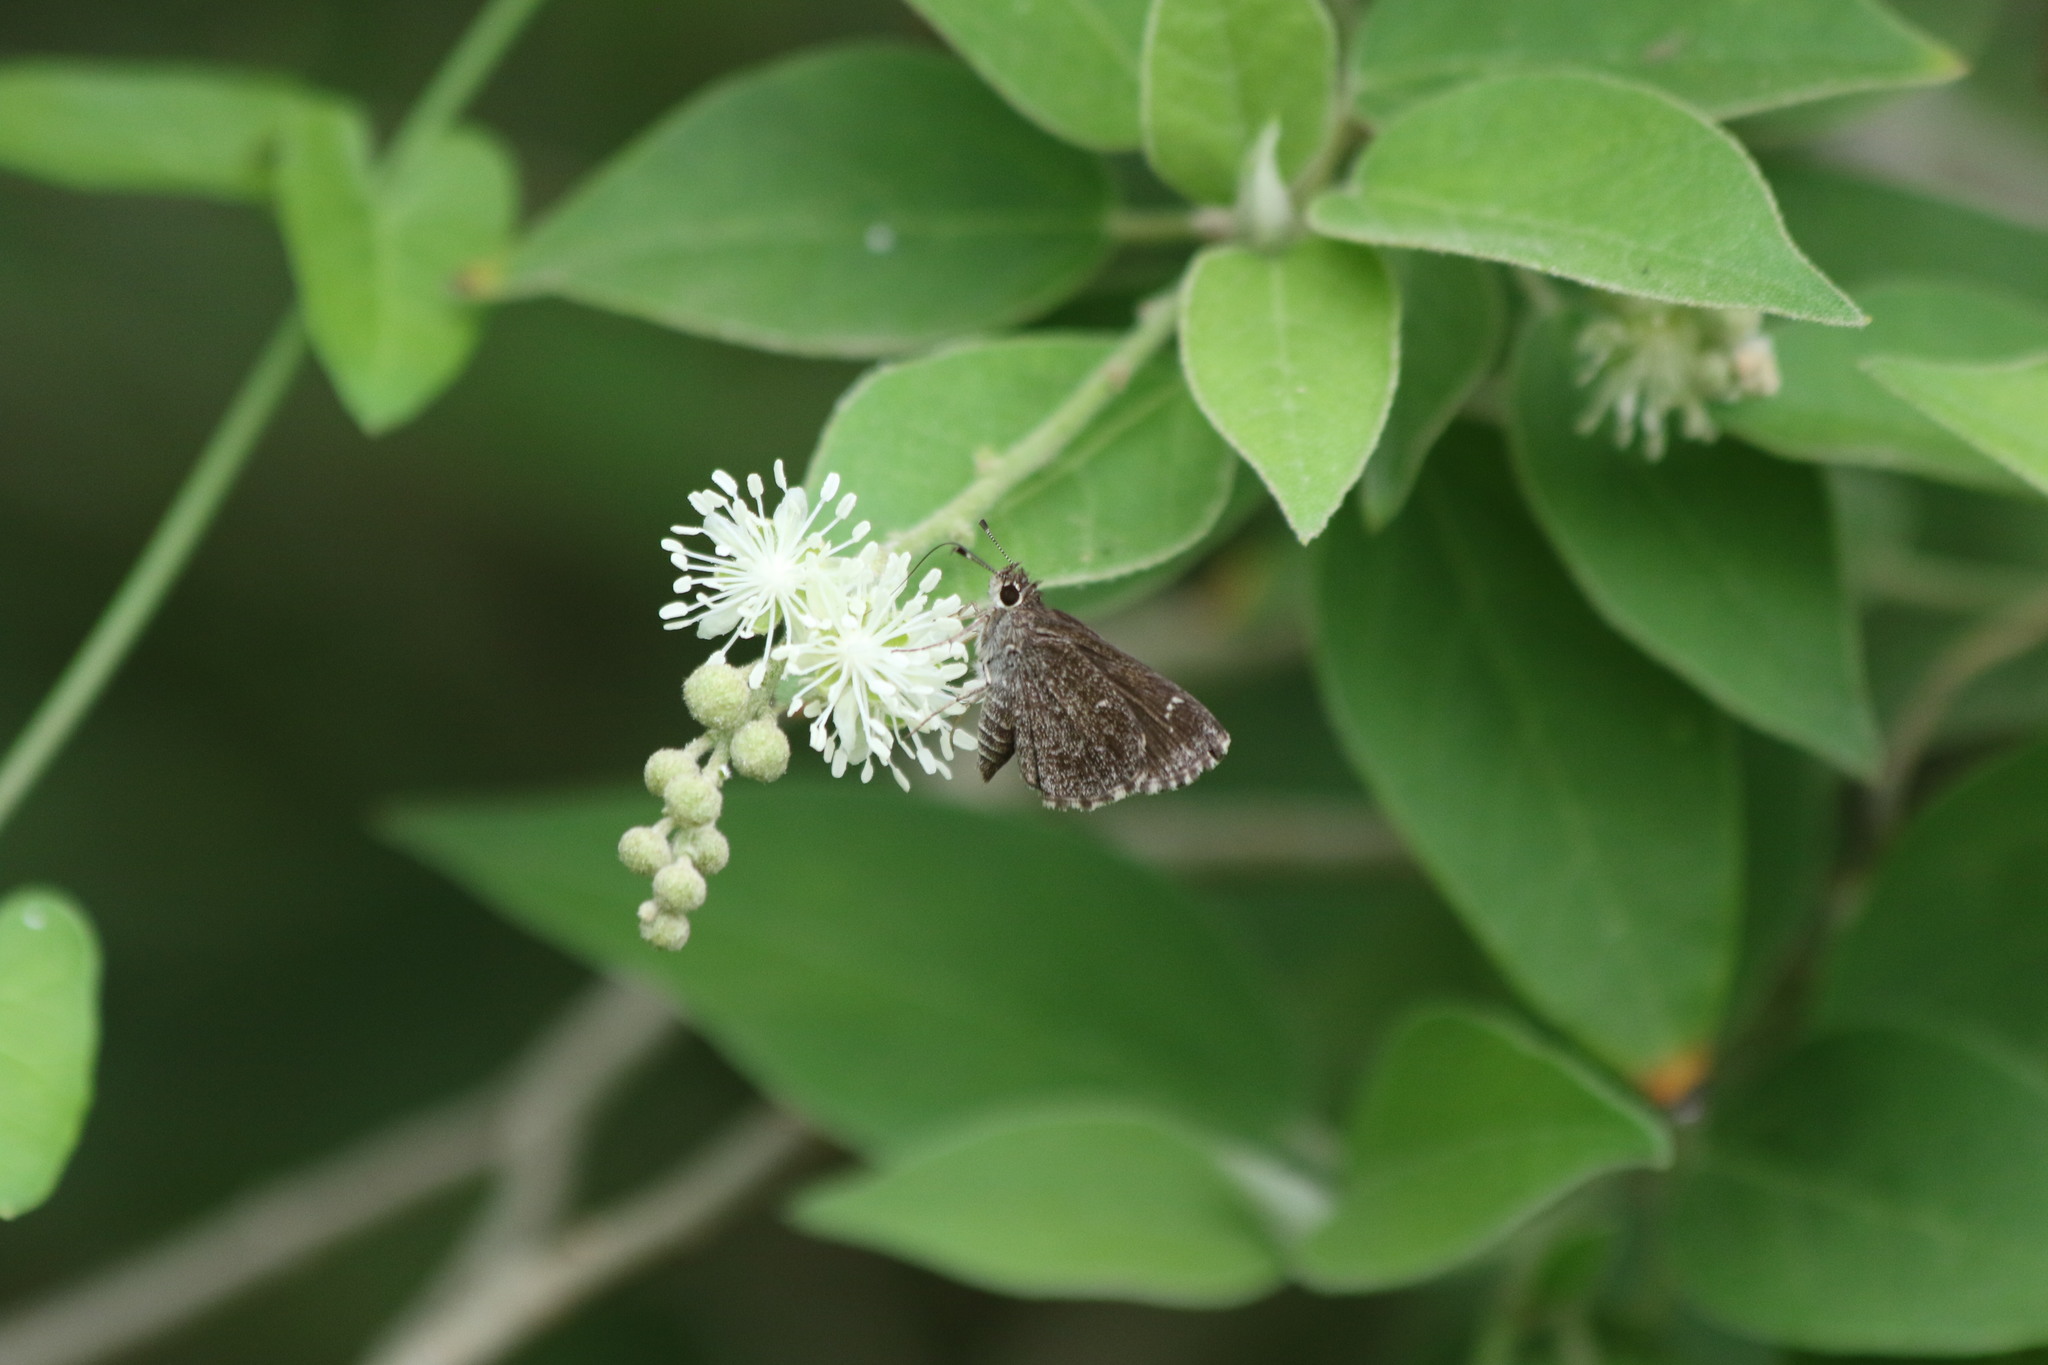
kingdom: Animalia
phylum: Arthropoda
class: Insecta
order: Lepidoptera
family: Hesperiidae
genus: Mastor
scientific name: Mastor celia
